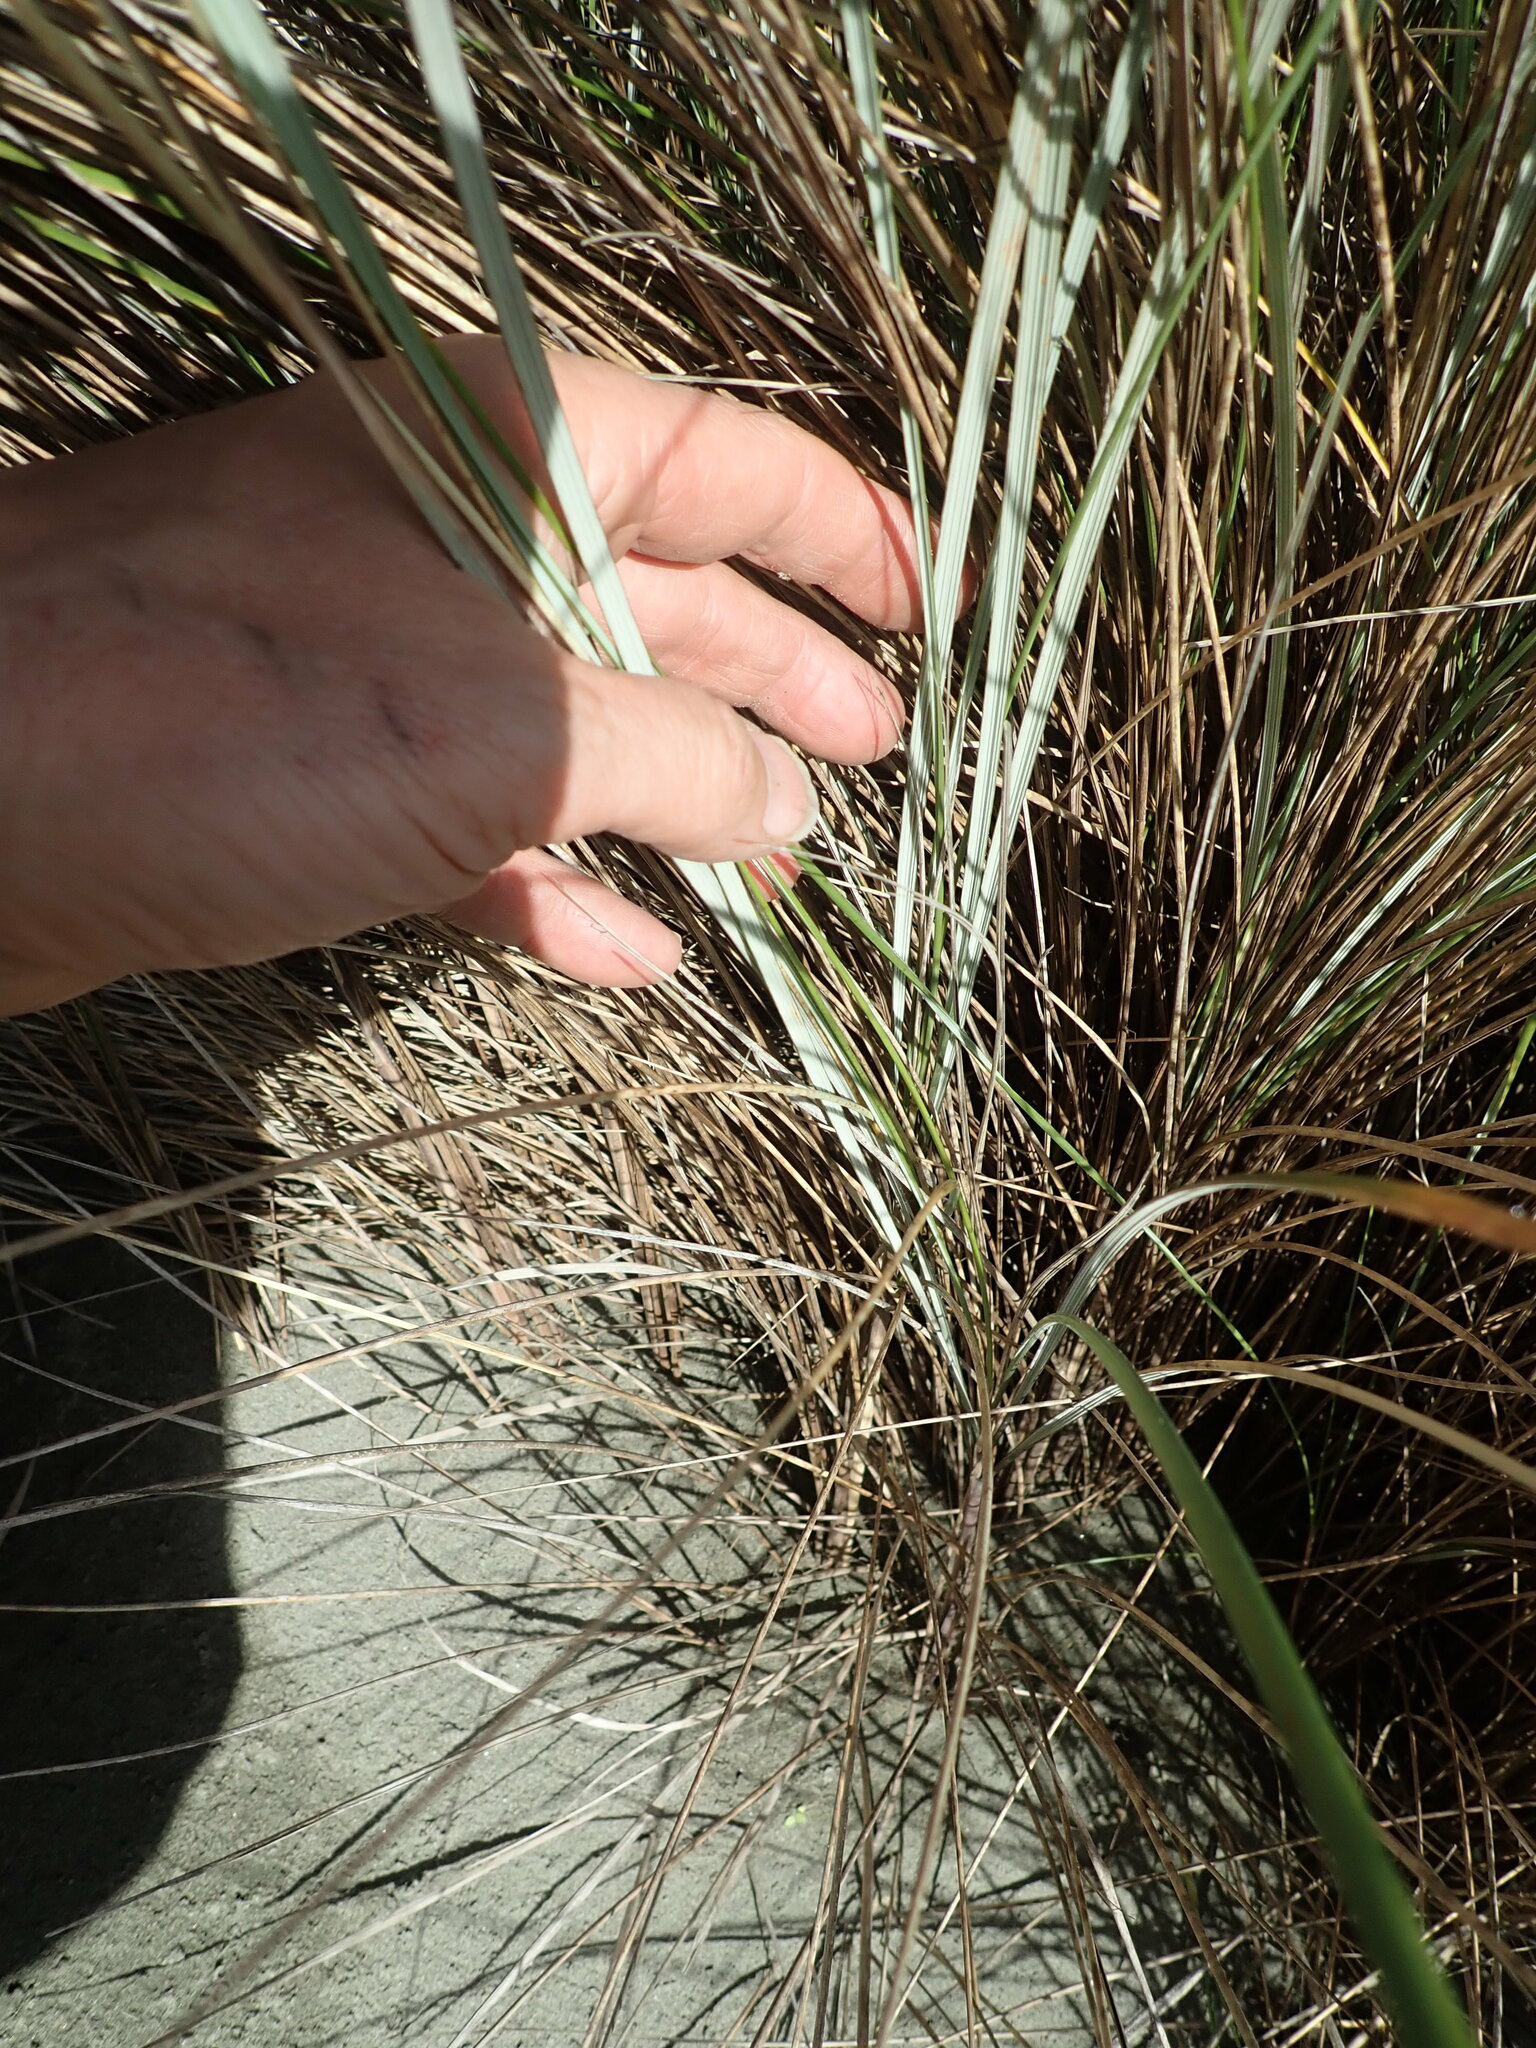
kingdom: Plantae
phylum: Tracheophyta
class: Liliopsida
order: Poales
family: Poaceae
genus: Calamagrostis
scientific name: Calamagrostis arenaria
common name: European beachgrass
